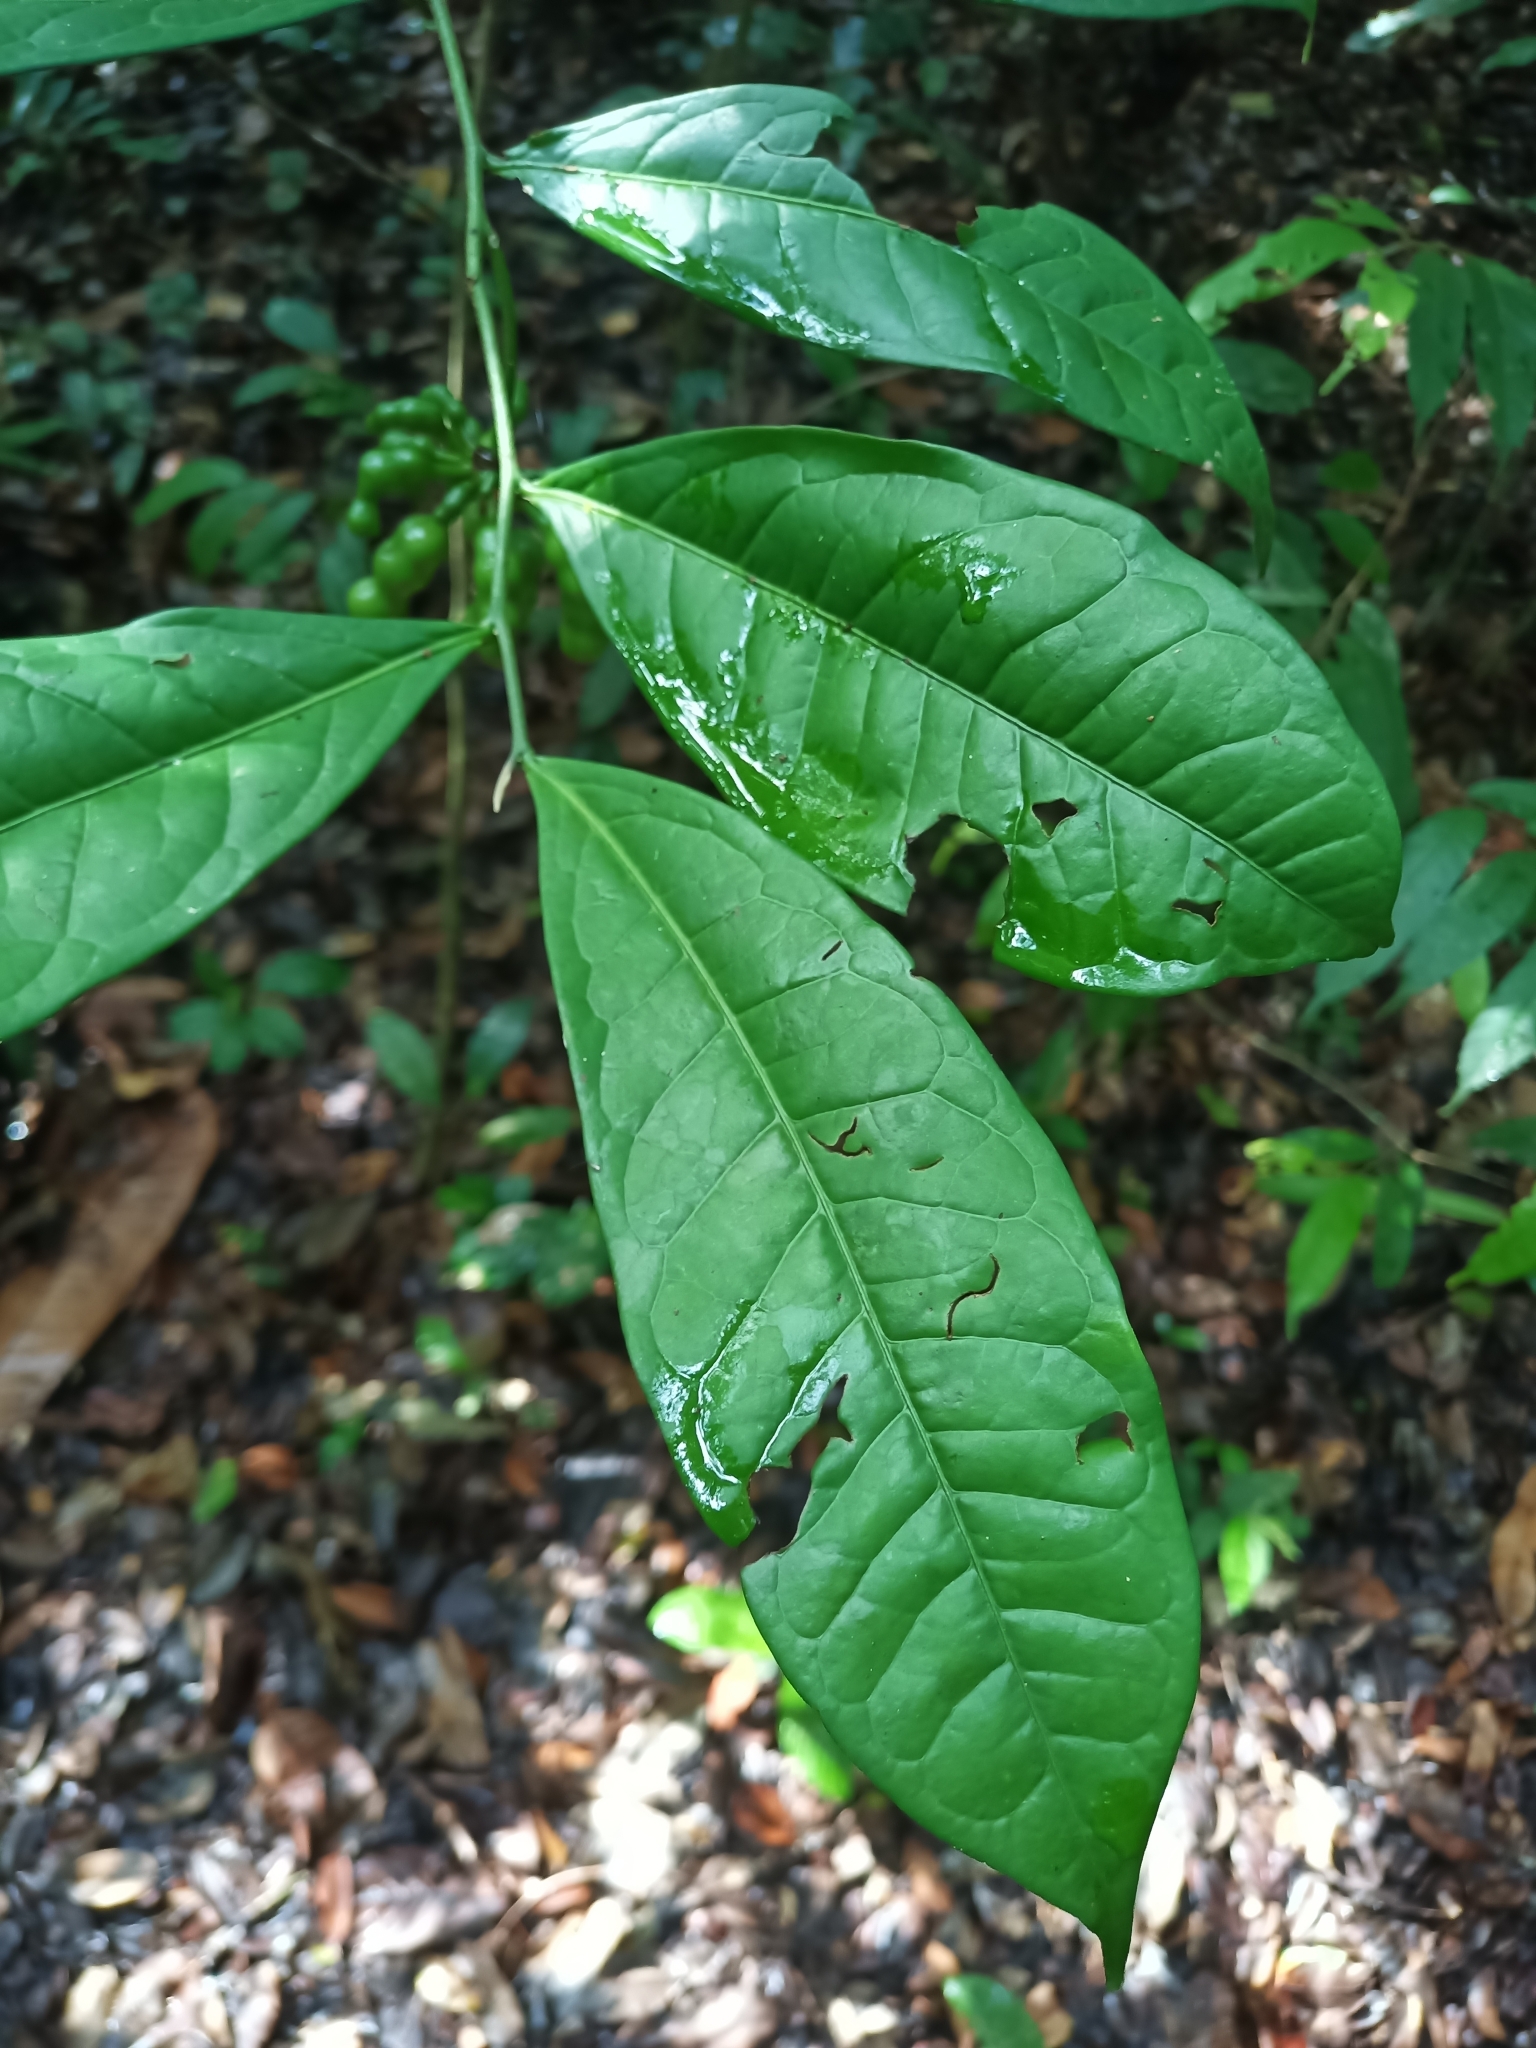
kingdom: Plantae
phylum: Tracheophyta
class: Magnoliopsida
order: Magnoliales
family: Annonaceae
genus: Cymbopetalum
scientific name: Cymbopetalum brasiliense
